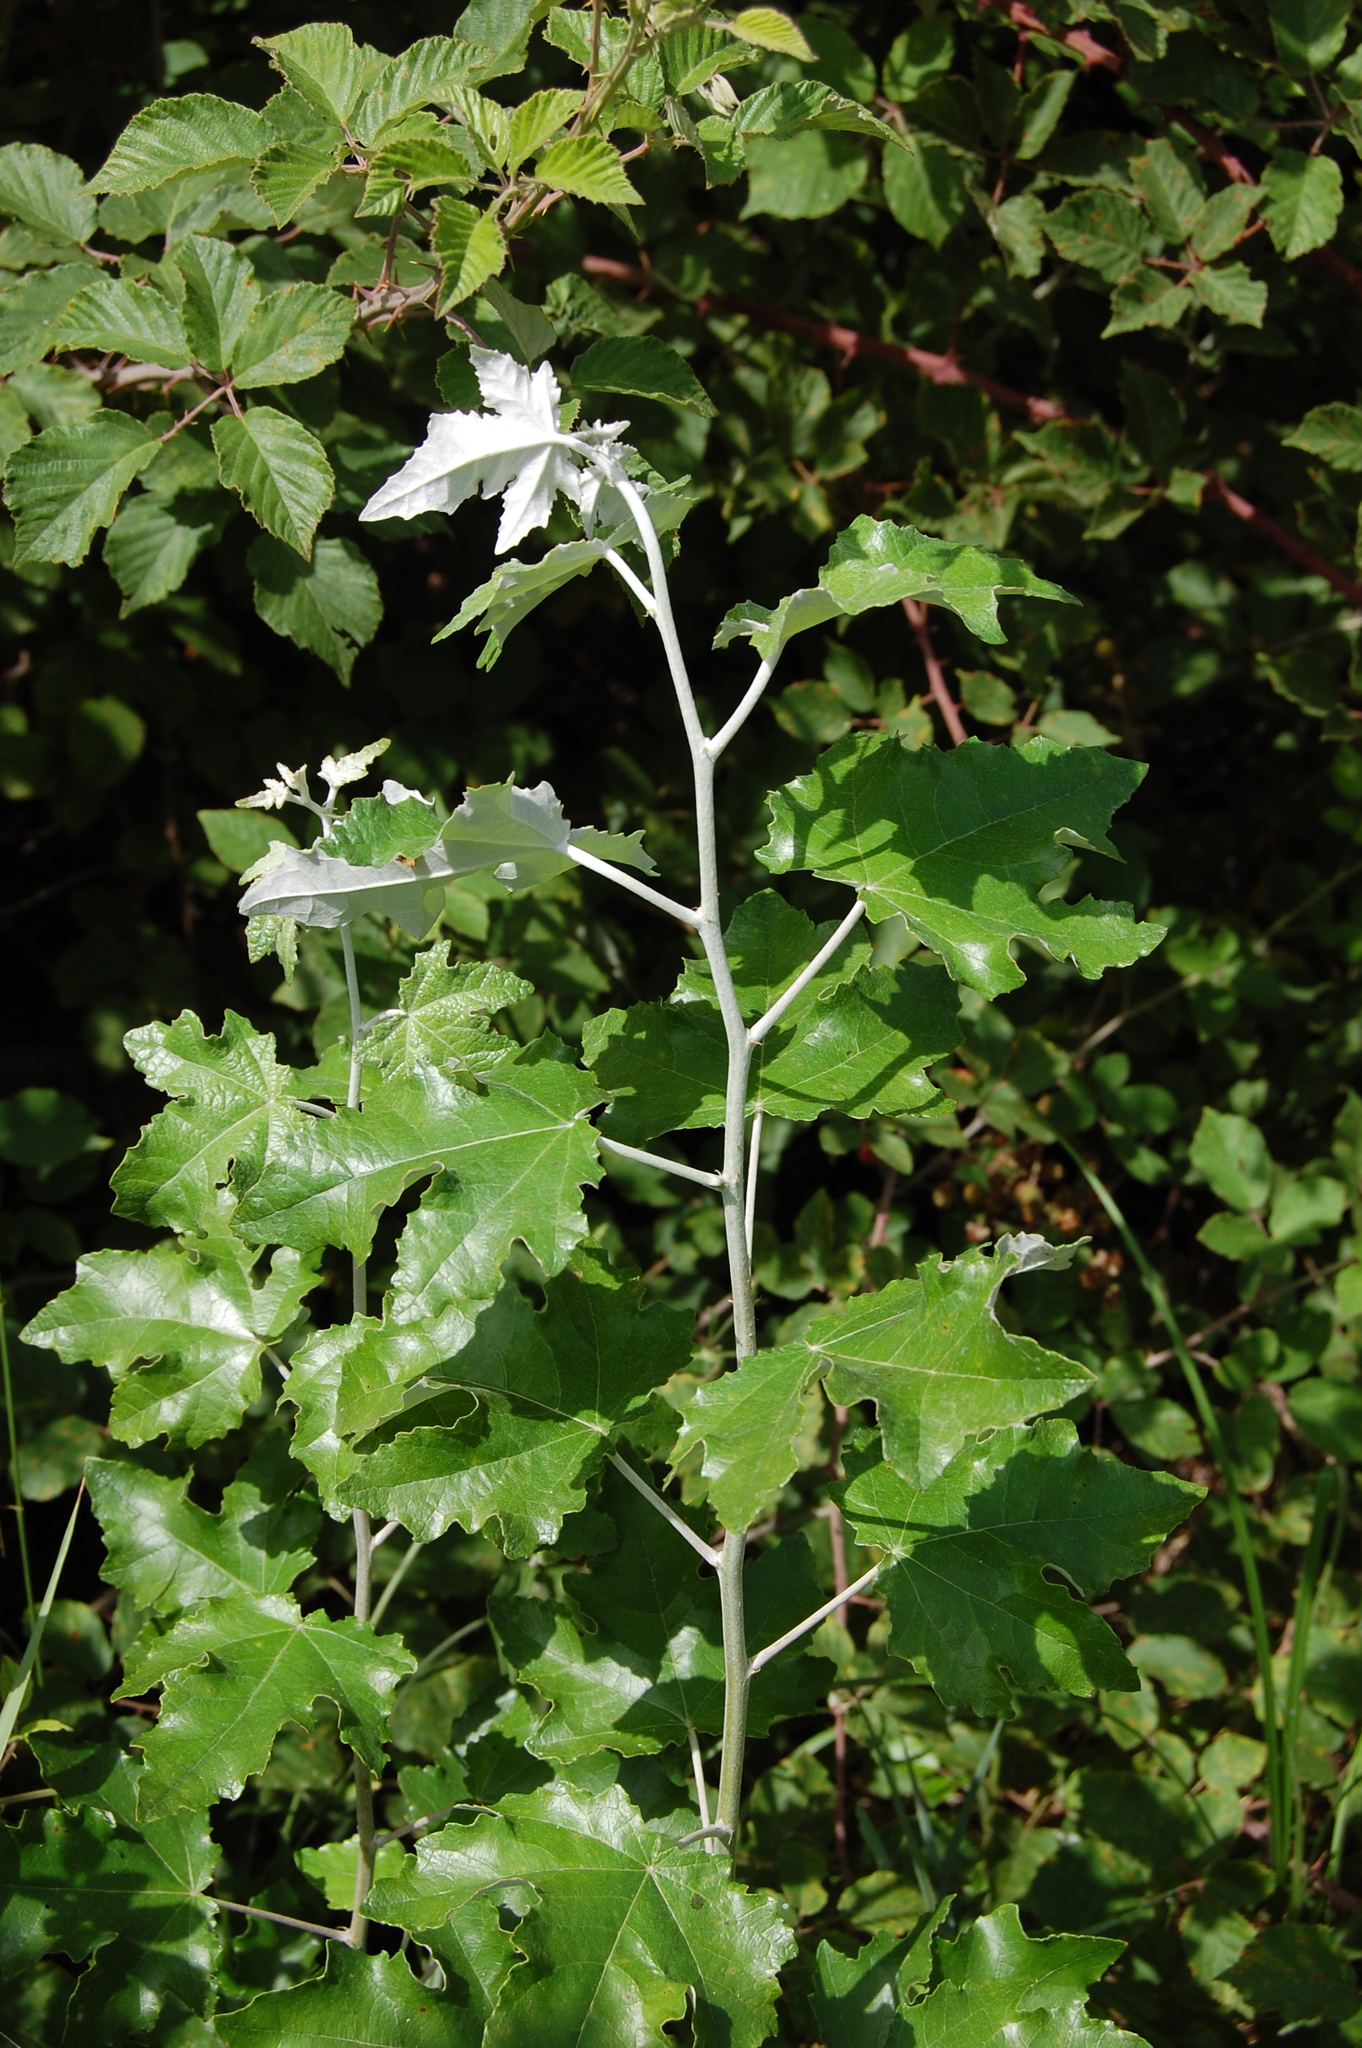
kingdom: Plantae
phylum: Tracheophyta
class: Magnoliopsida
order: Malpighiales
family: Salicaceae
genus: Populus
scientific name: Populus alba
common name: White poplar
